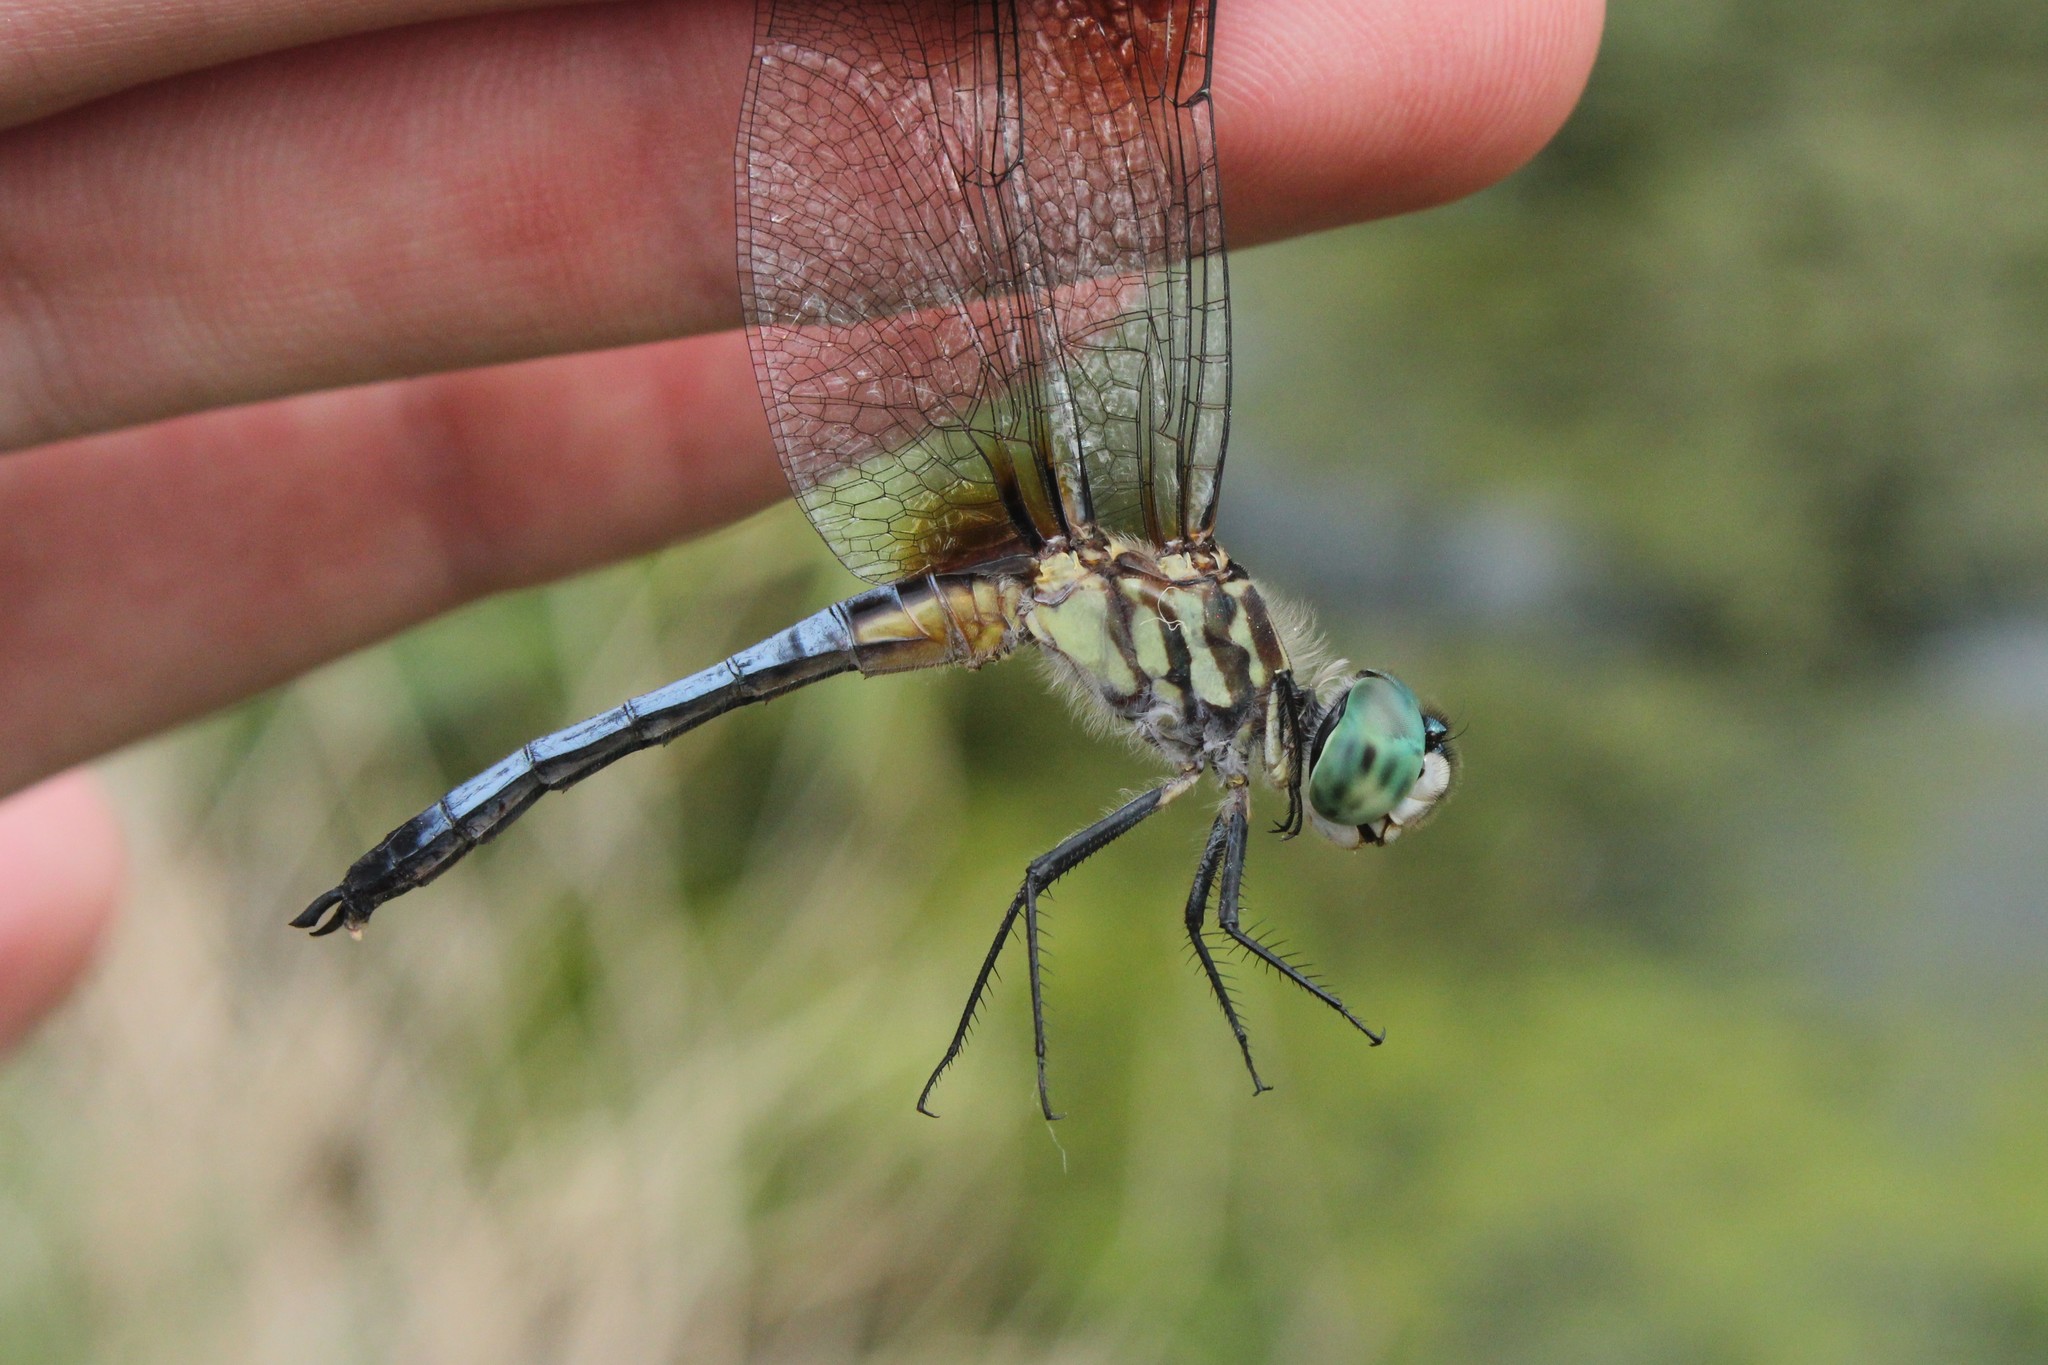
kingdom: Animalia
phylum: Arthropoda
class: Insecta
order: Odonata
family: Libellulidae
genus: Pachydiplax
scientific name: Pachydiplax longipennis
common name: Blue dasher
